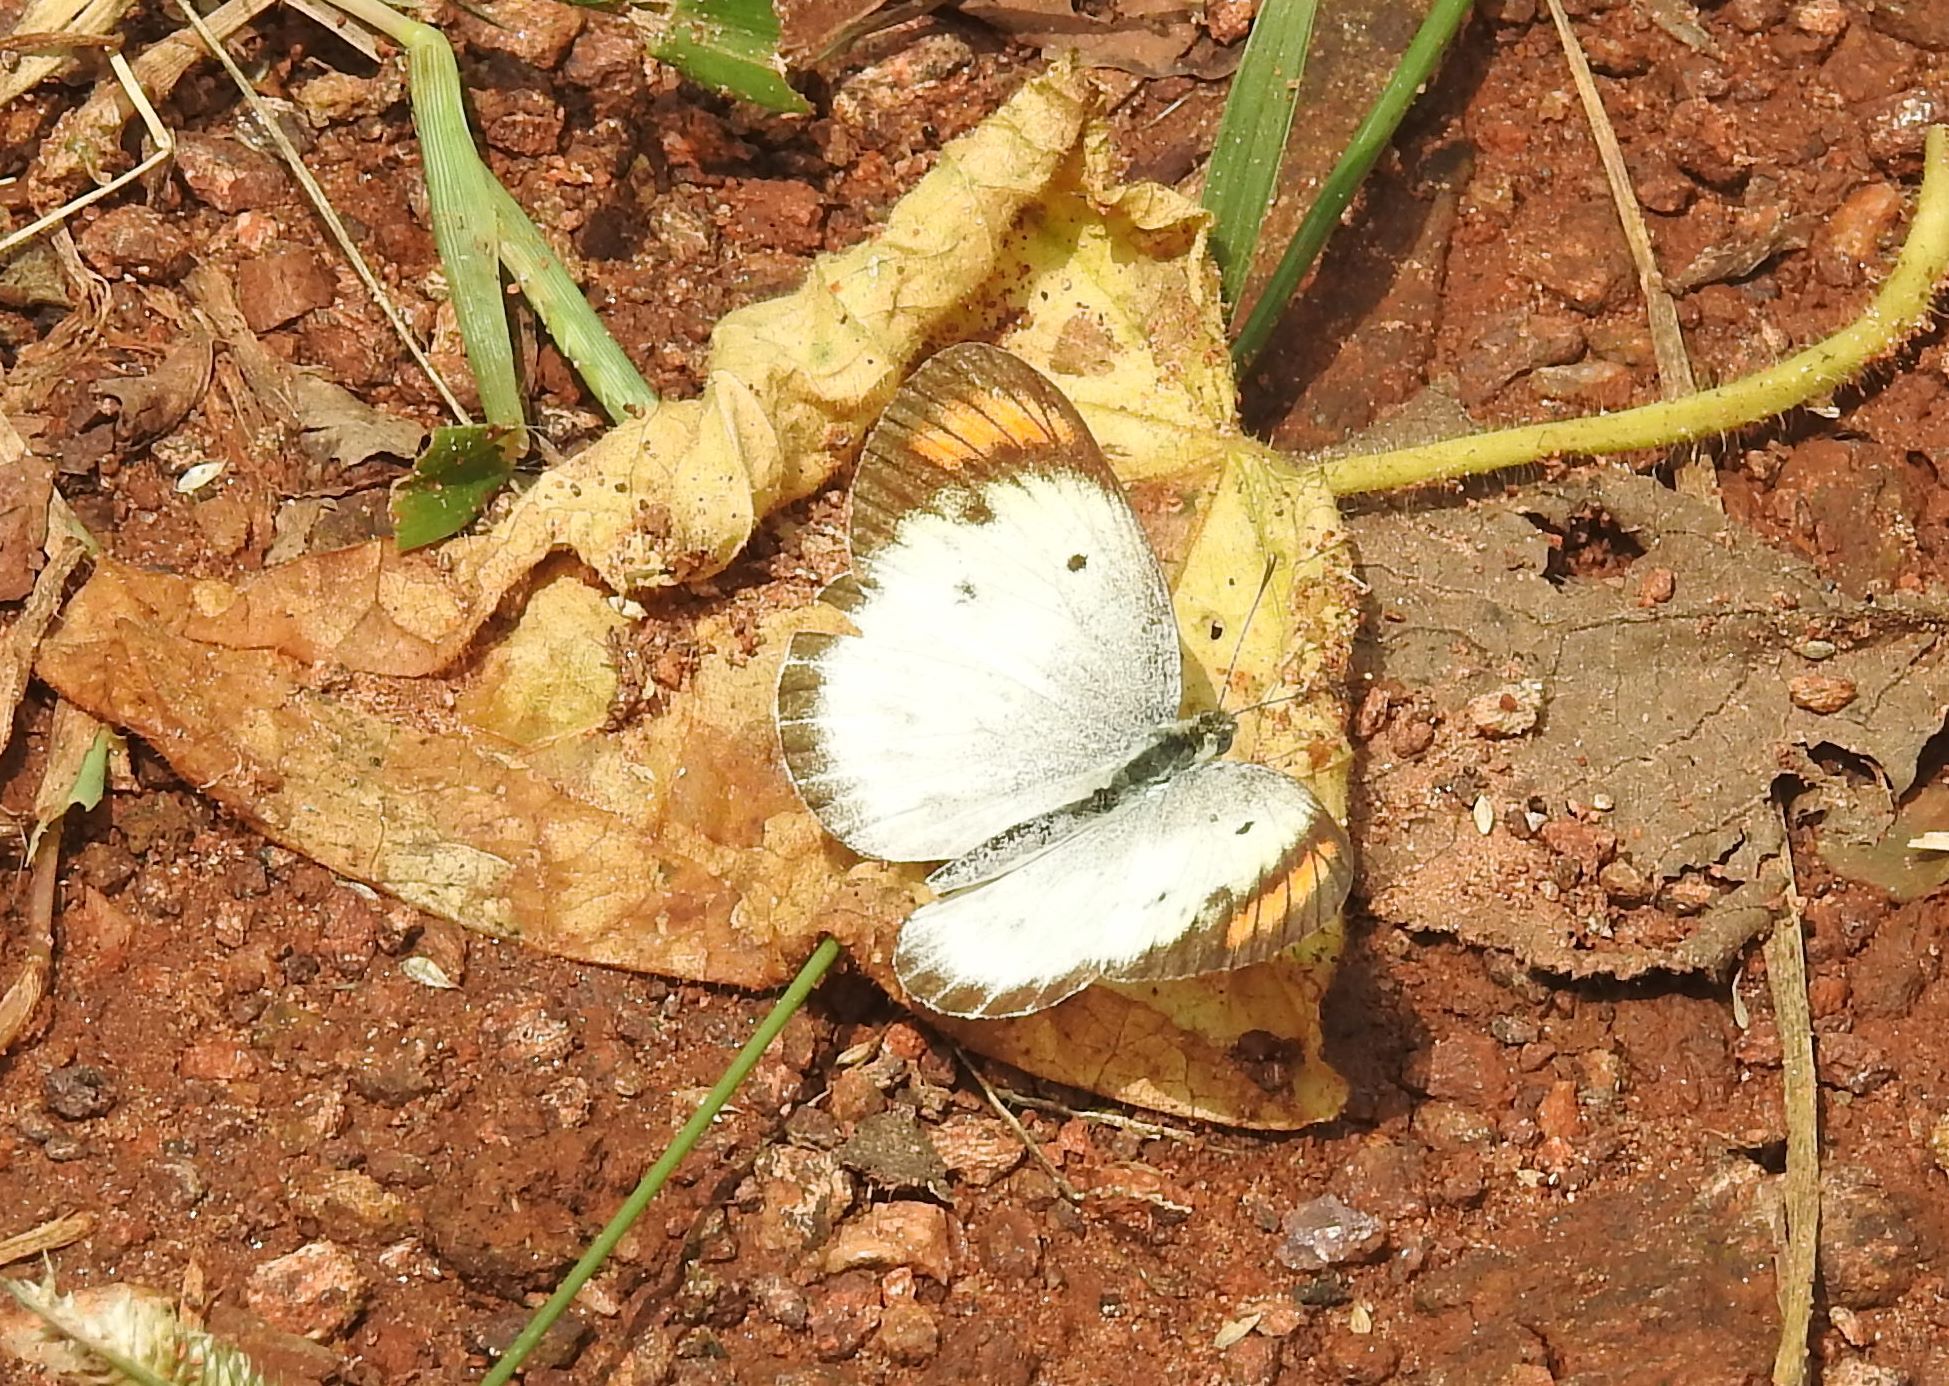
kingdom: Animalia
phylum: Arthropoda
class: Insecta
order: Lepidoptera
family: Pieridae
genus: Colotis
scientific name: Colotis etrida
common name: Little orange tip
